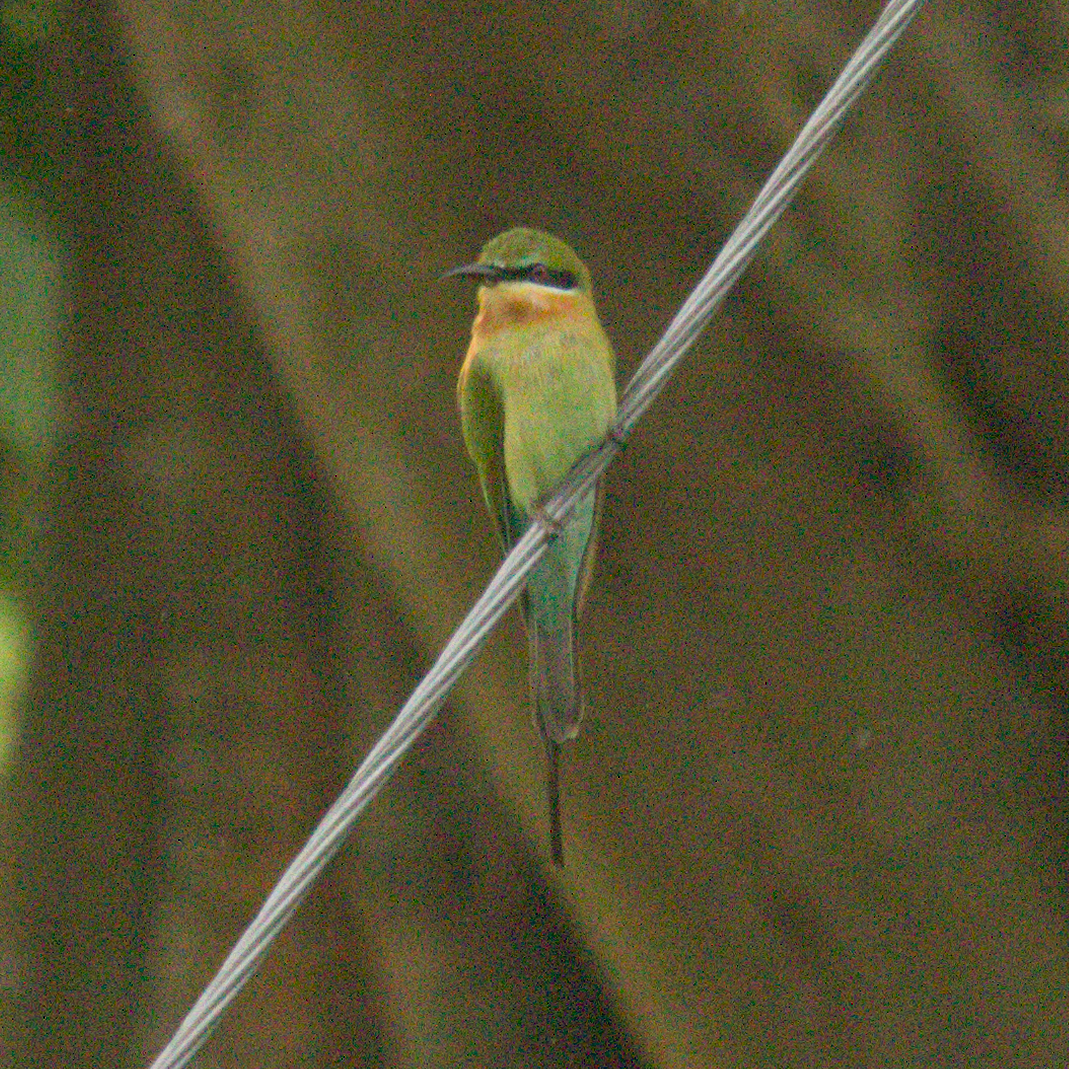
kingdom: Animalia
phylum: Chordata
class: Aves
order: Coraciiformes
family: Meropidae
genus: Merops
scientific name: Merops philippinus
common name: Blue-tailed bee-eater
